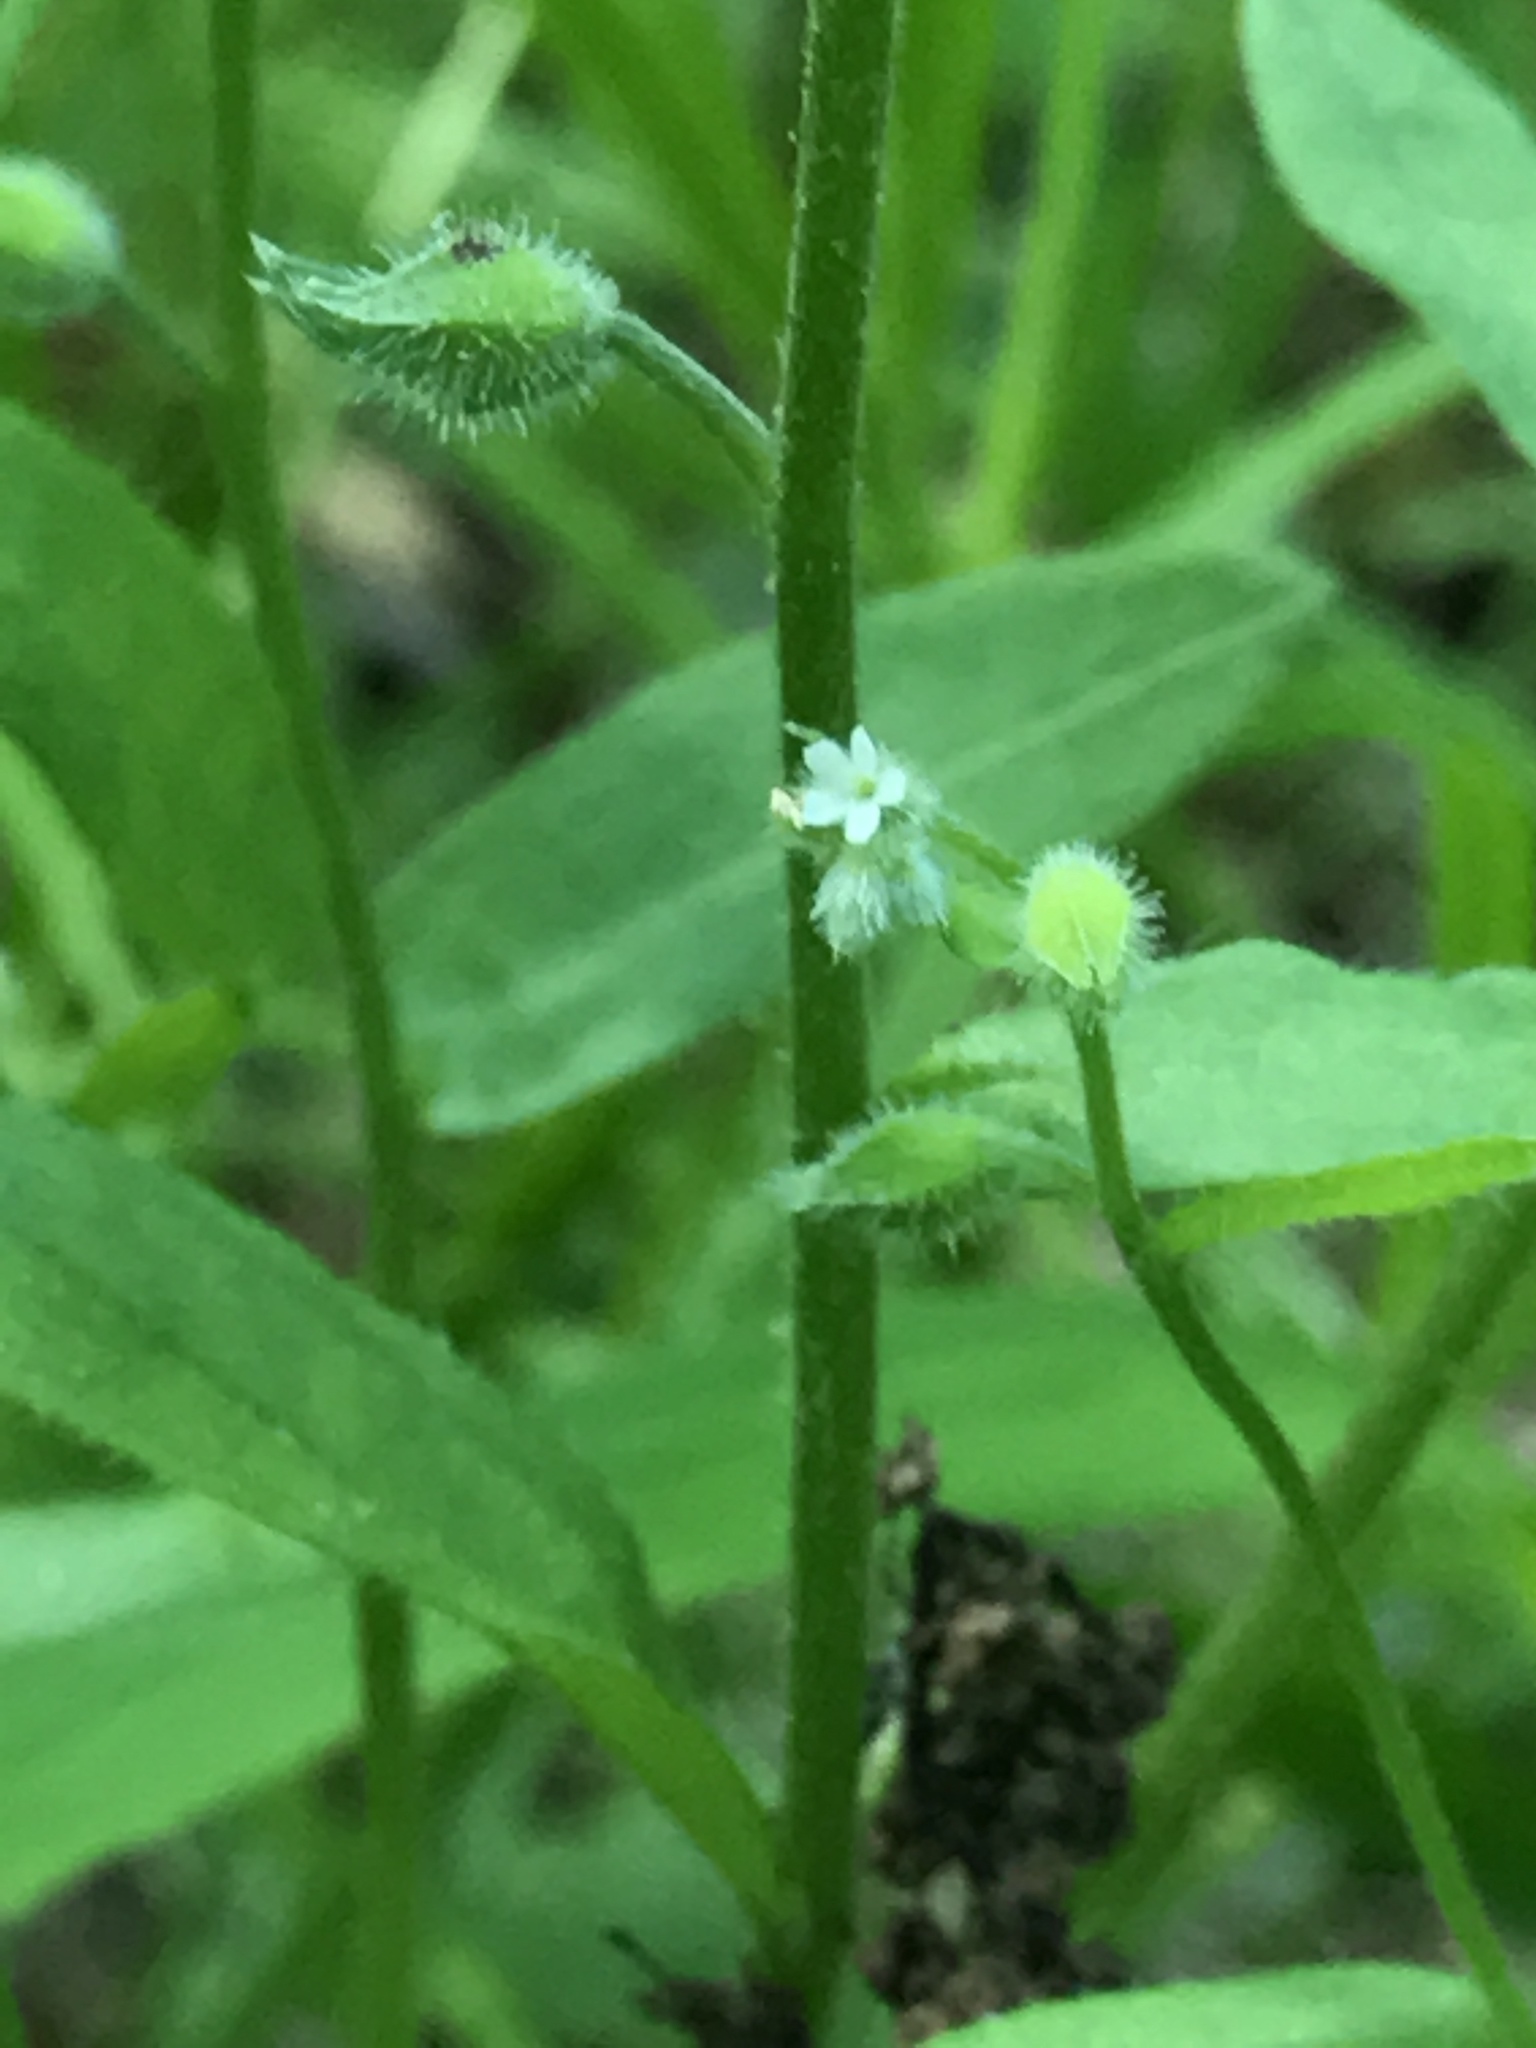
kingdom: Plantae
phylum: Tracheophyta
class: Magnoliopsida
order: Boraginales
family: Boraginaceae
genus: Myosotis
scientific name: Myosotis macrosperma
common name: Large-seed forget-me-not
